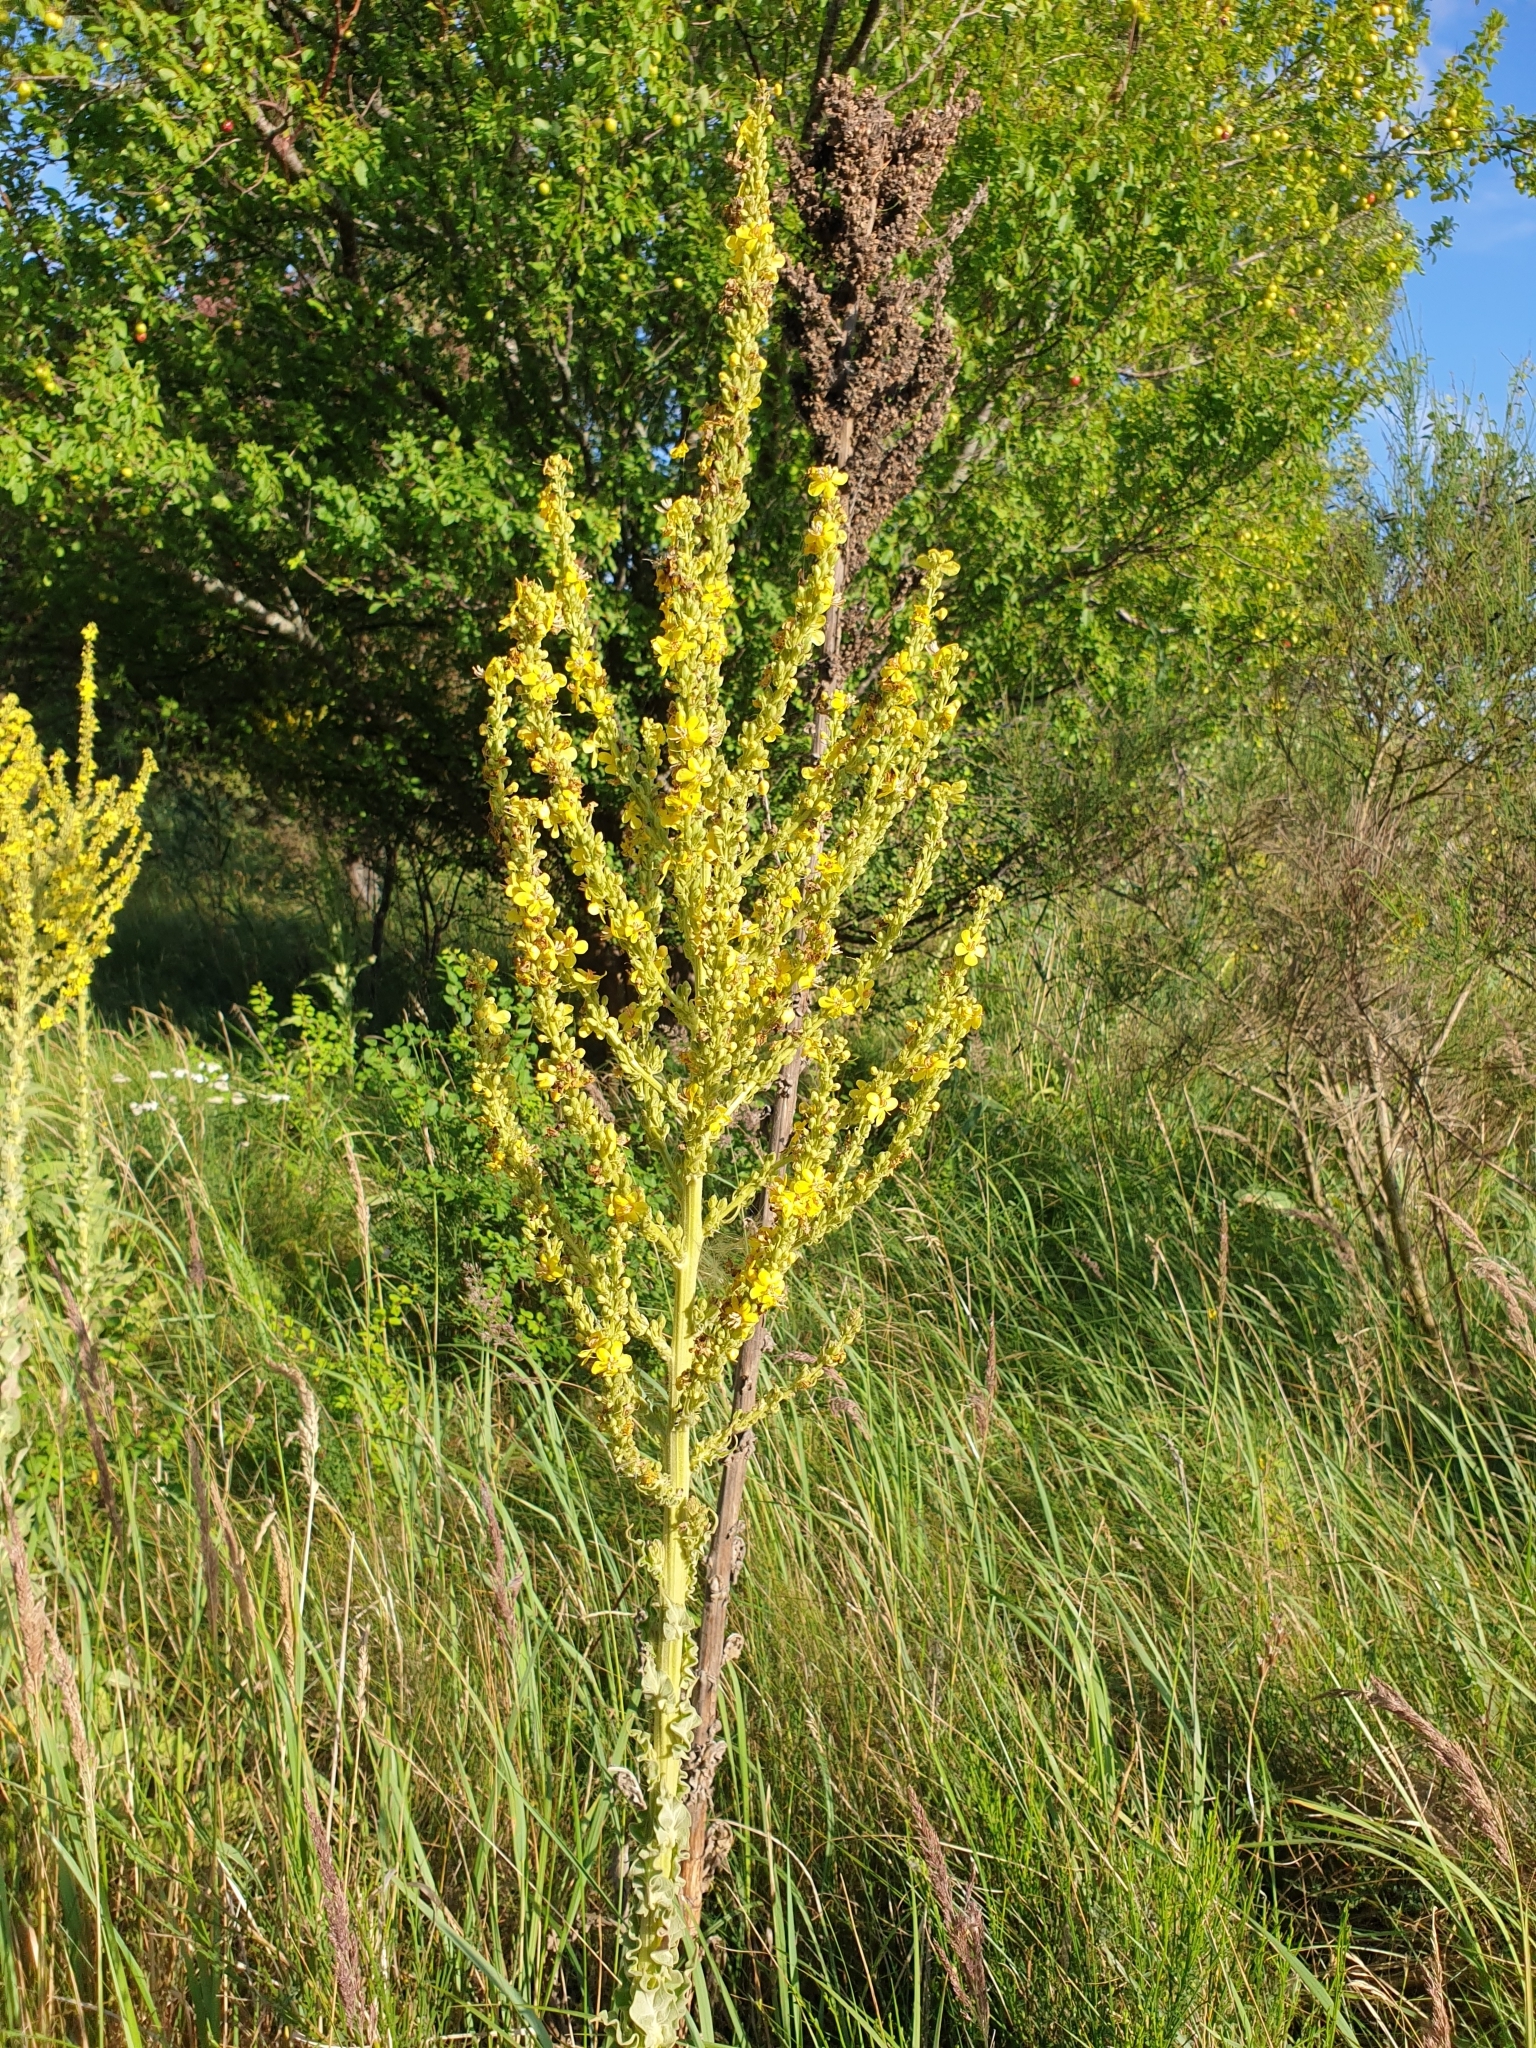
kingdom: Plantae
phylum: Tracheophyta
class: Magnoliopsida
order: Lamiales
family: Scrophulariaceae
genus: Verbascum
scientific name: Verbascum speciosum
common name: Hungarian mullein
